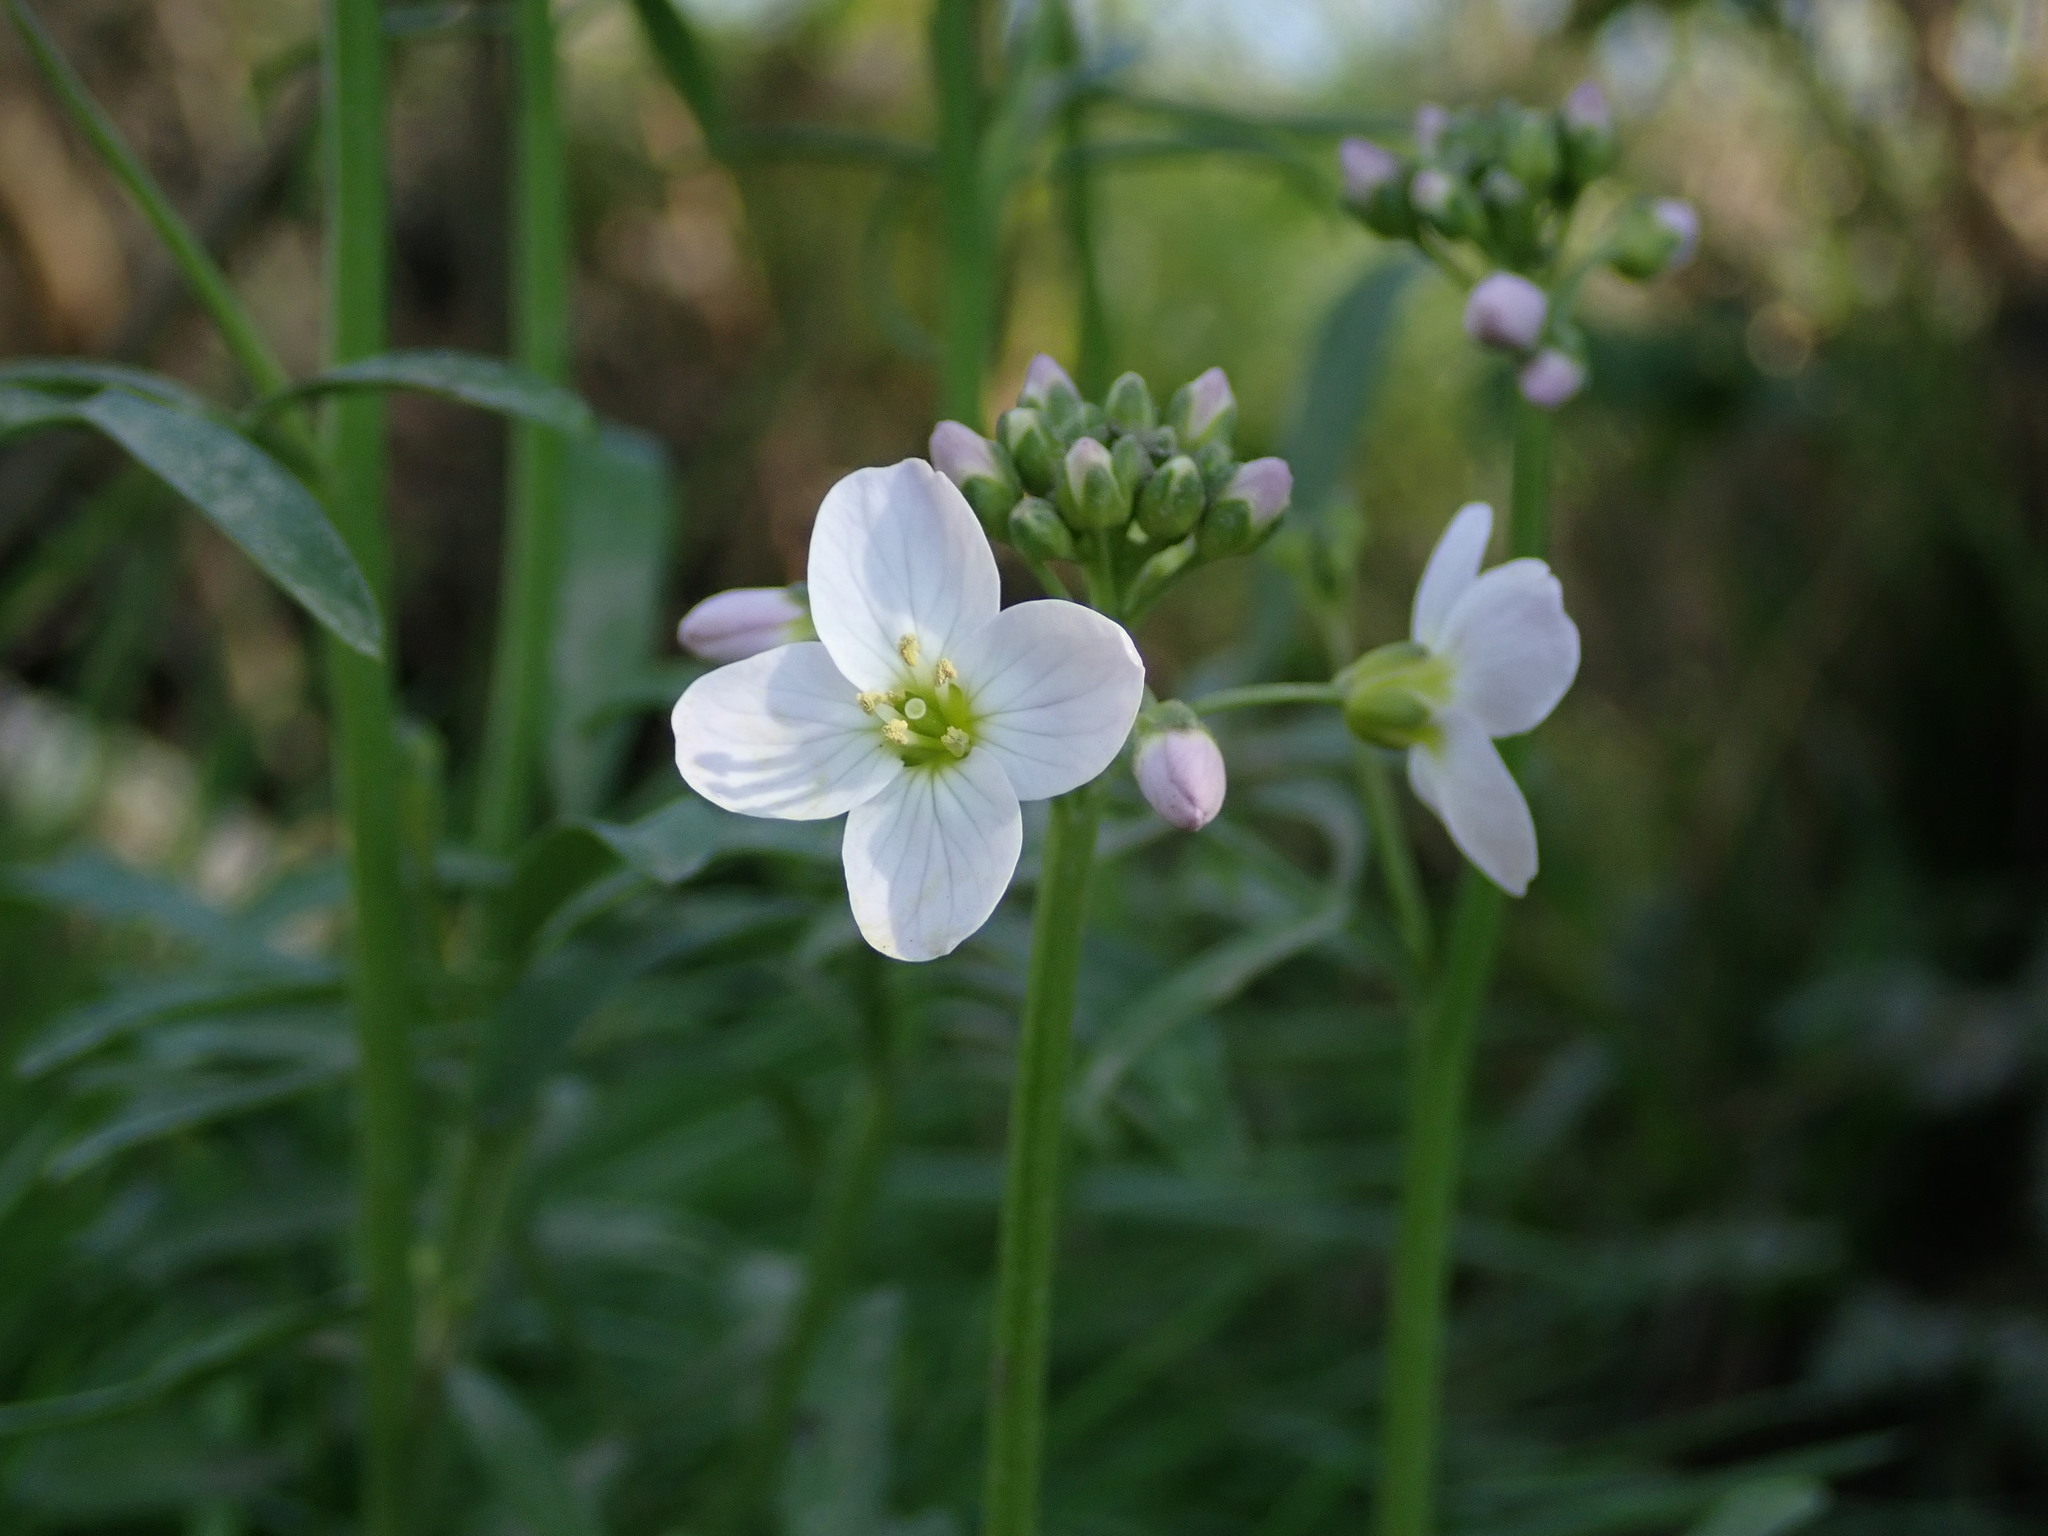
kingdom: Plantae
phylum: Tracheophyta
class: Magnoliopsida
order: Brassicales
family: Brassicaceae
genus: Cardamine
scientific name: Cardamine pratensis
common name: Cuckoo flower
